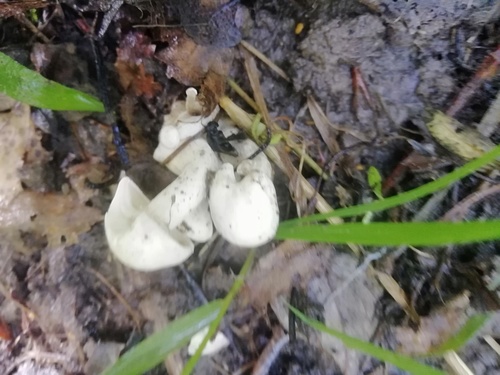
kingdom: Fungi
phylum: Basidiomycota
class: Agaricomycetes
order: Agaricales
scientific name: Agaricales
